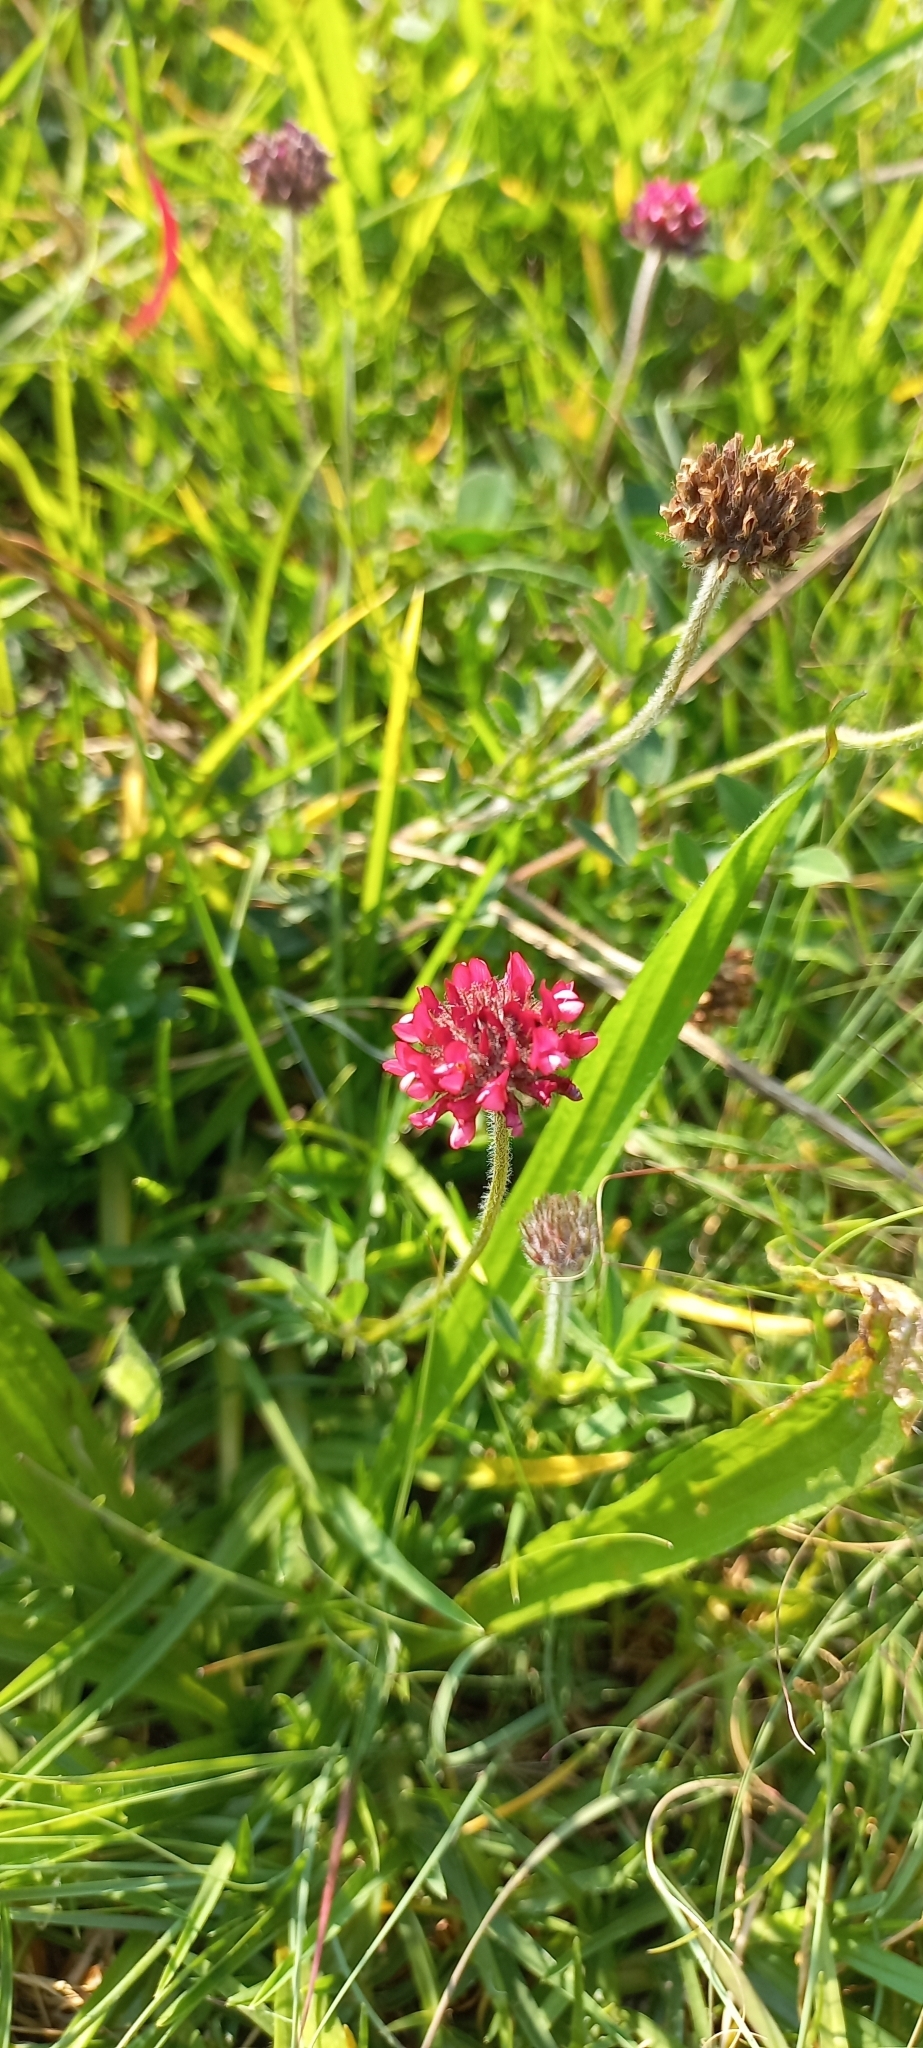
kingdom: Plantae
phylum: Tracheophyta
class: Magnoliopsida
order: Fabales
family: Fabaceae
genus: Trifolium
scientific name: Trifolium africanum
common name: Erasmus clover
